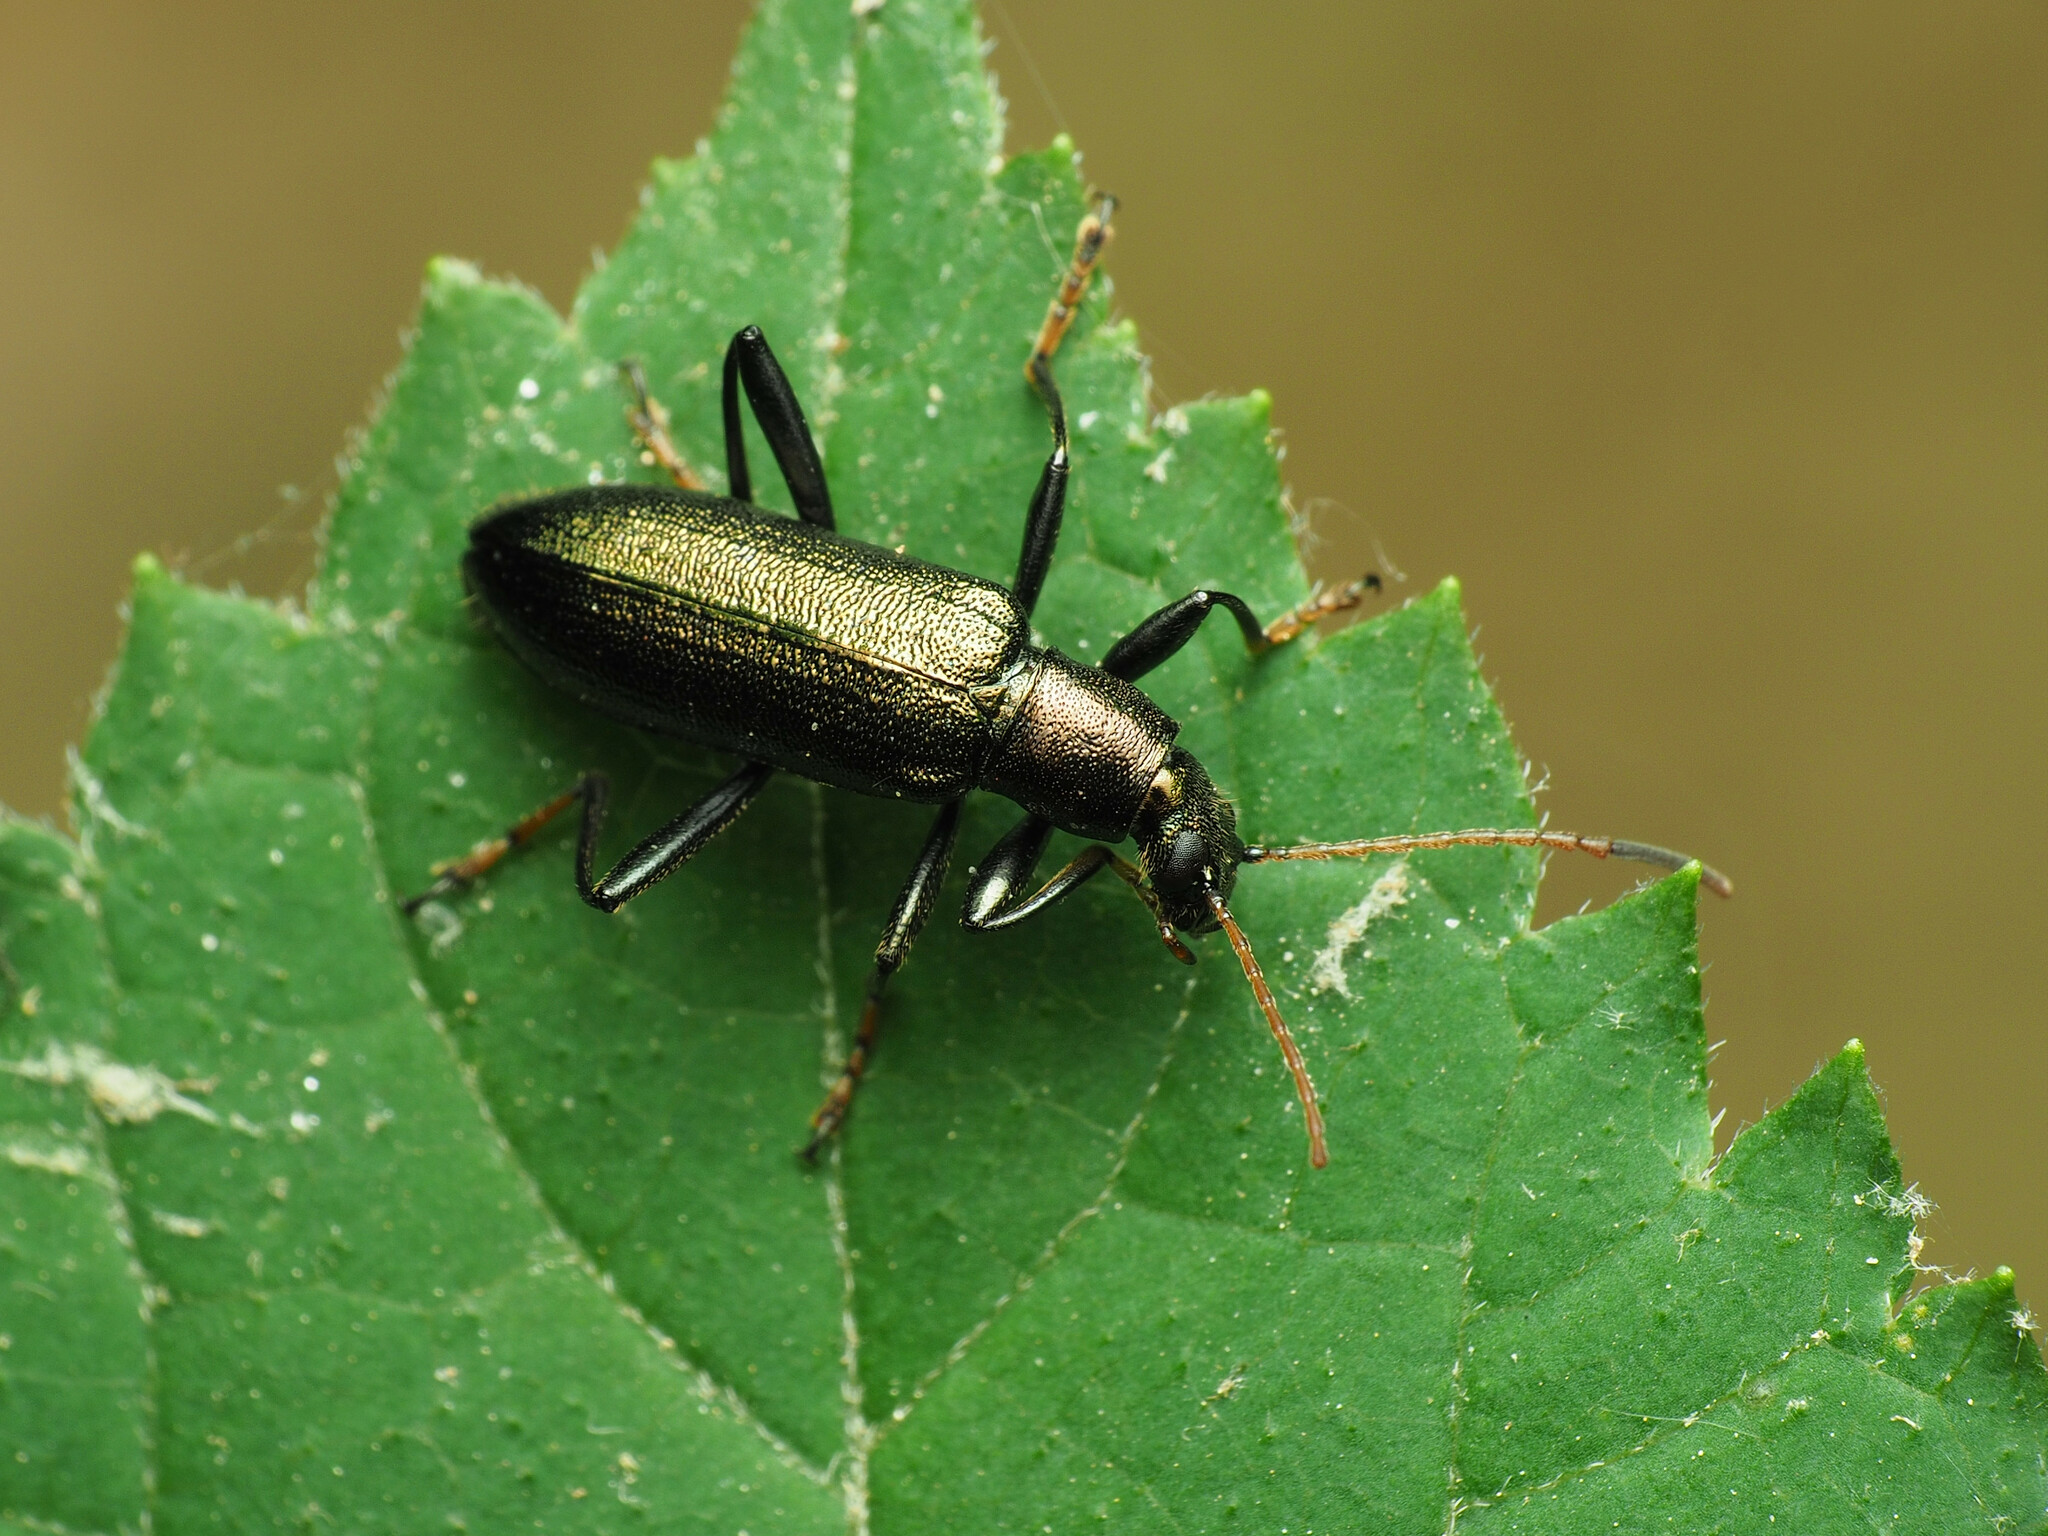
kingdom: Animalia
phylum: Arthropoda
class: Insecta
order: Coleoptera
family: Tenebrionidae
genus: Arthromacra
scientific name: Arthromacra aenea
